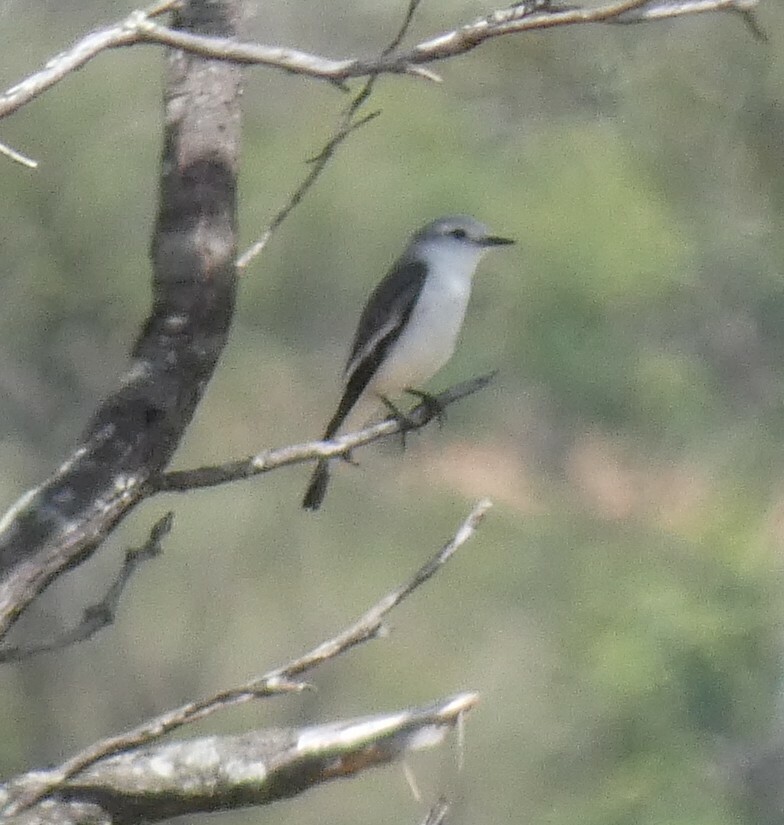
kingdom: Animalia
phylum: Chordata
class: Aves
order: Passeriformes
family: Tyrannidae
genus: Xolmis
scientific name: Xolmis velatus
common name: White-rumped monjita
